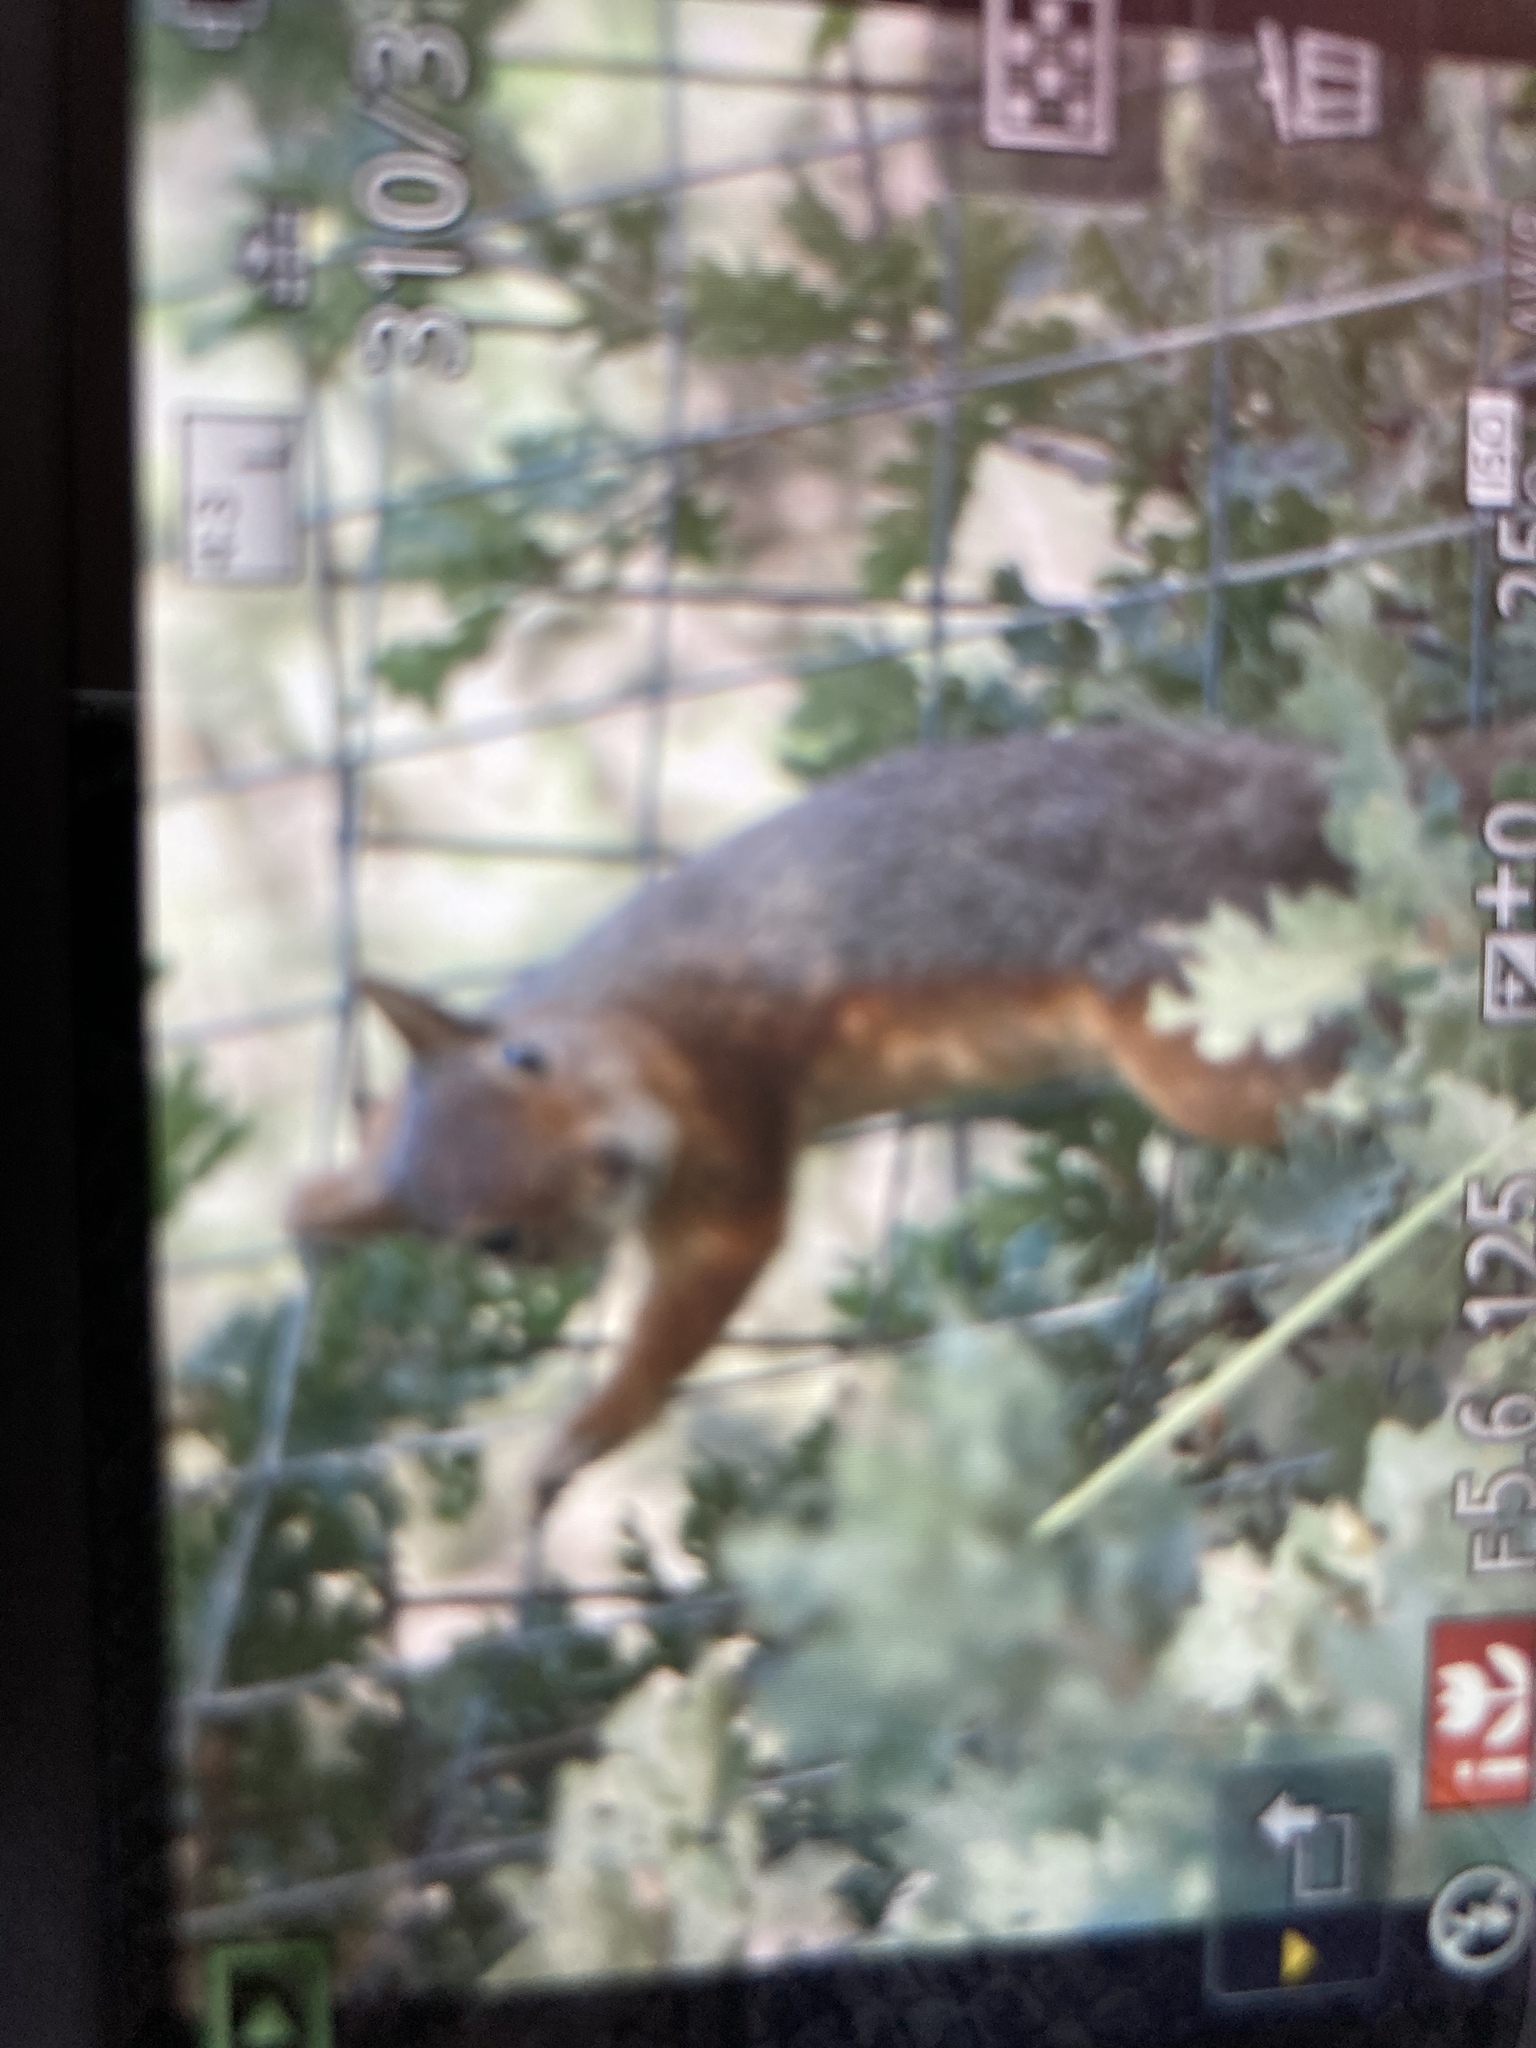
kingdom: Animalia
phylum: Chordata
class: Mammalia
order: Rodentia
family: Sciuridae
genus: Sciurus
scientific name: Sciurus anomalus
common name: Caucasian squirrel
